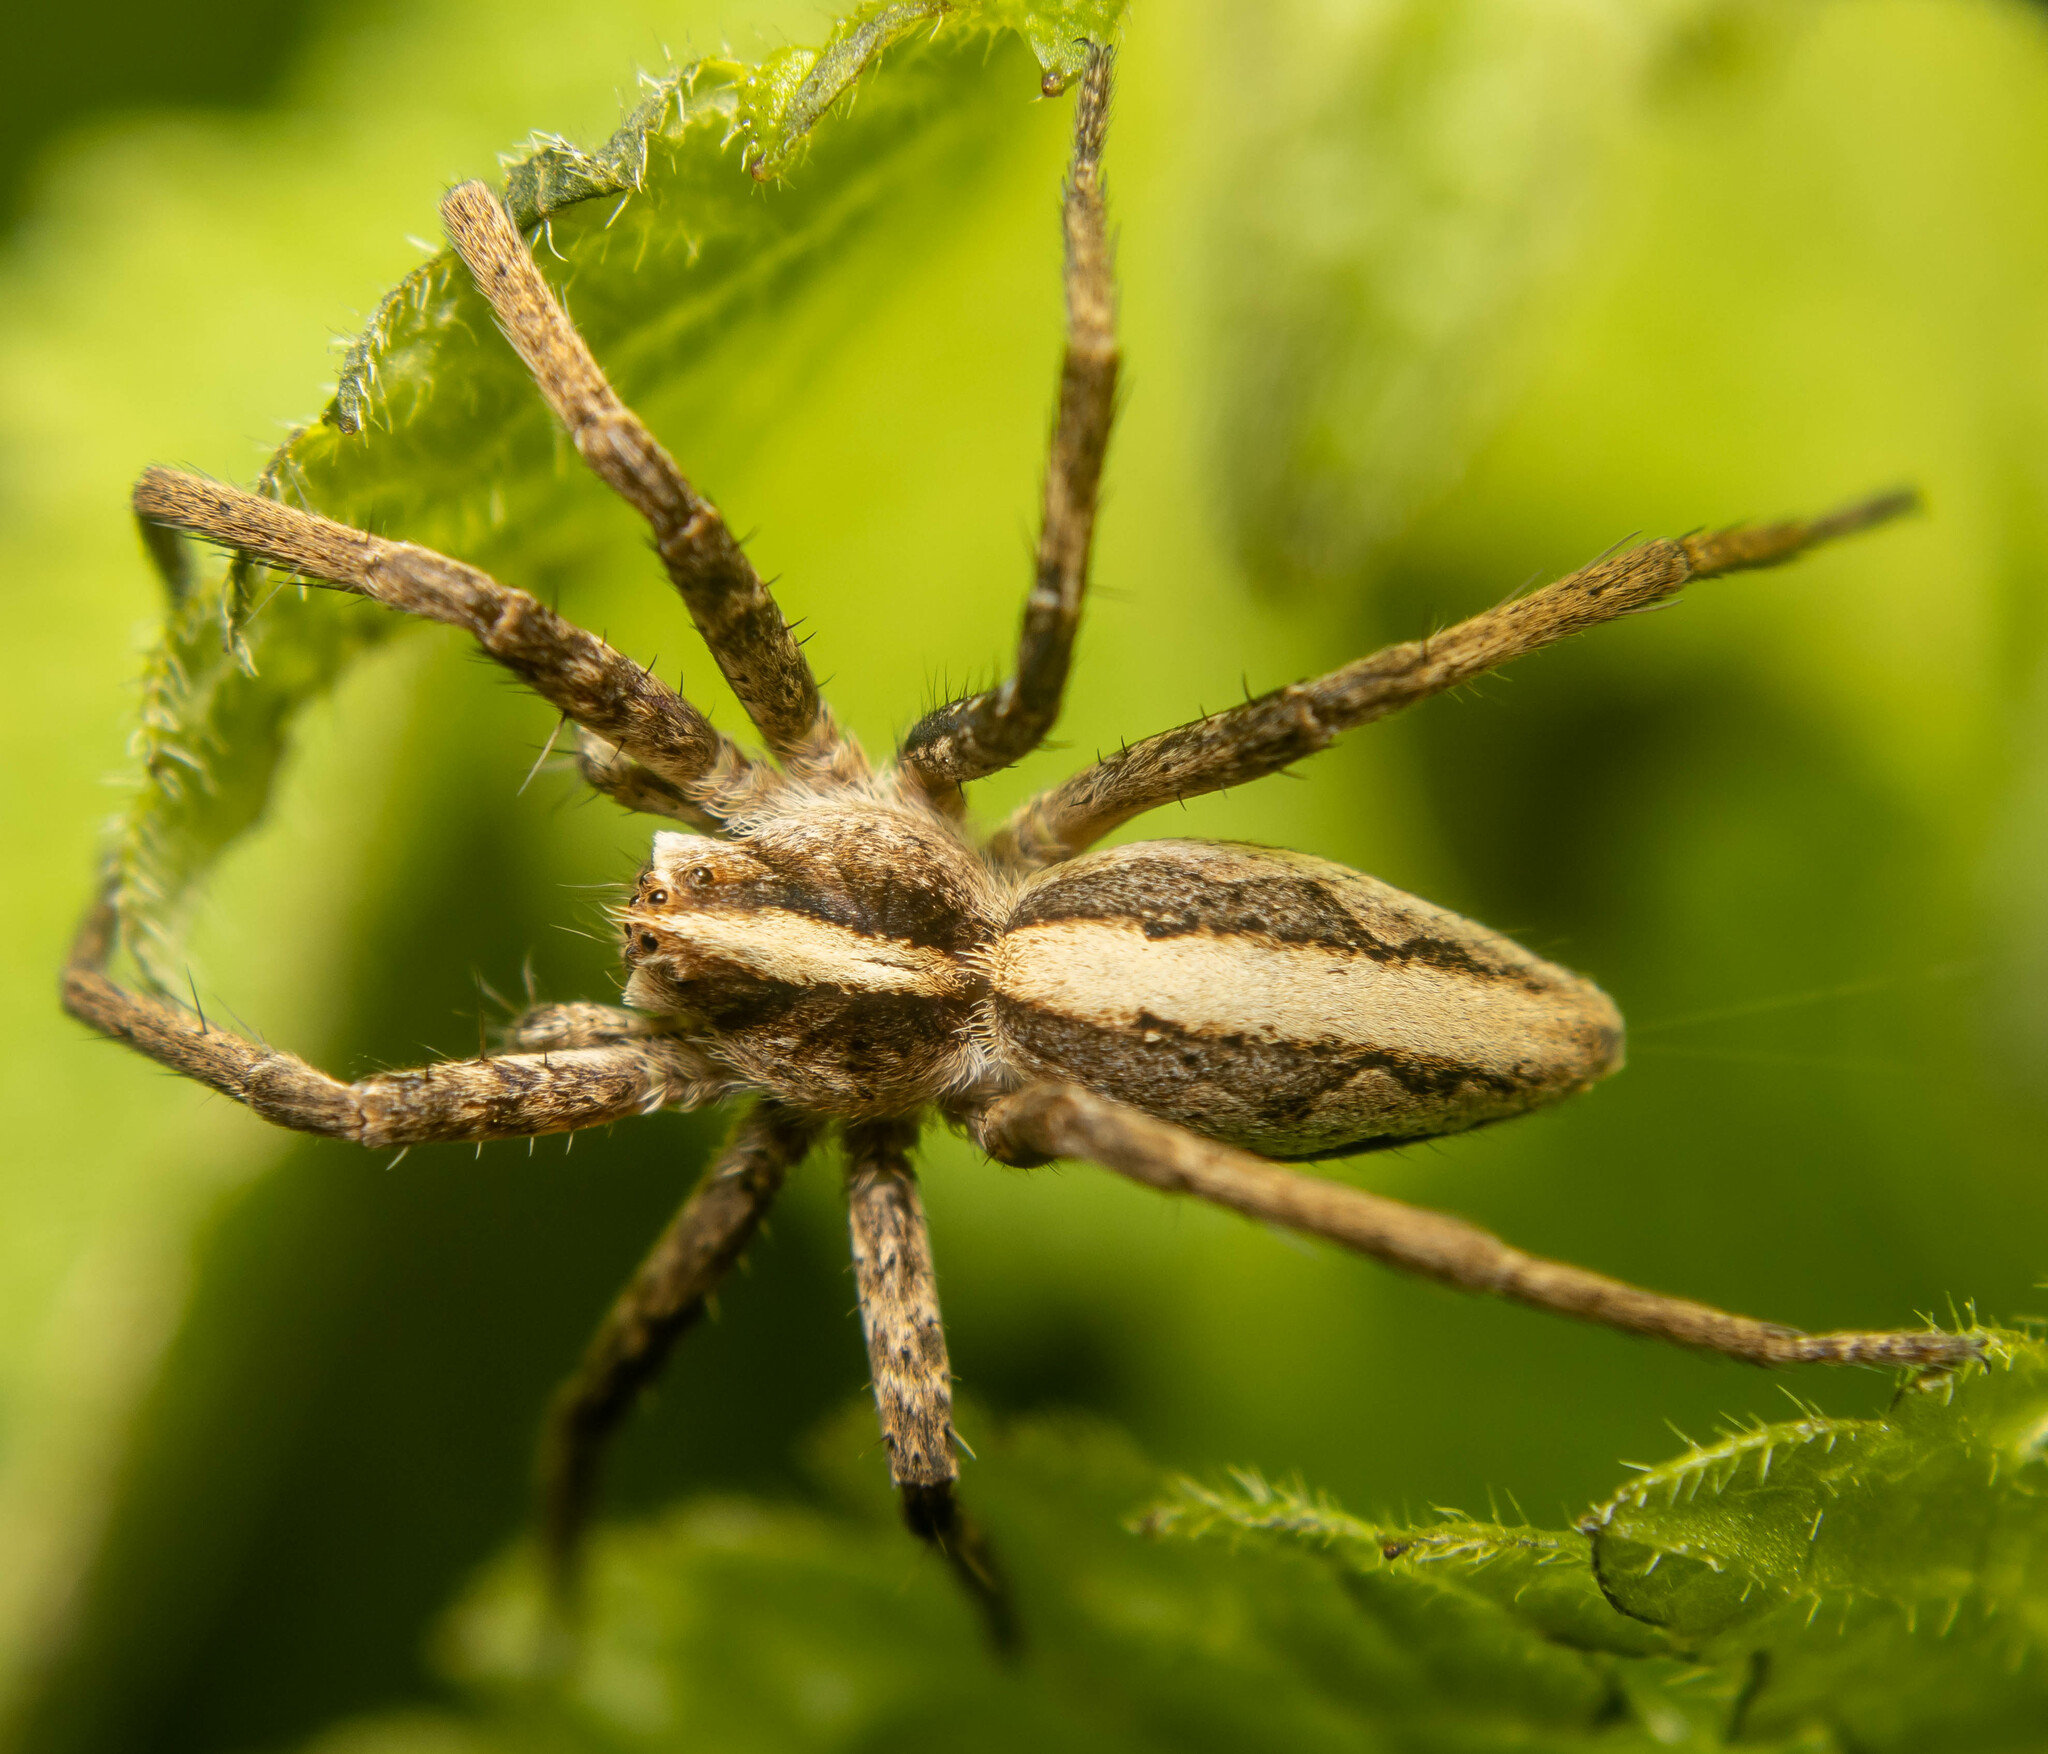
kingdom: Animalia
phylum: Arthropoda
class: Arachnida
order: Araneae
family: Pisauridae
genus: Pisaura
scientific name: Pisaura mirabilis
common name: Tent spider
